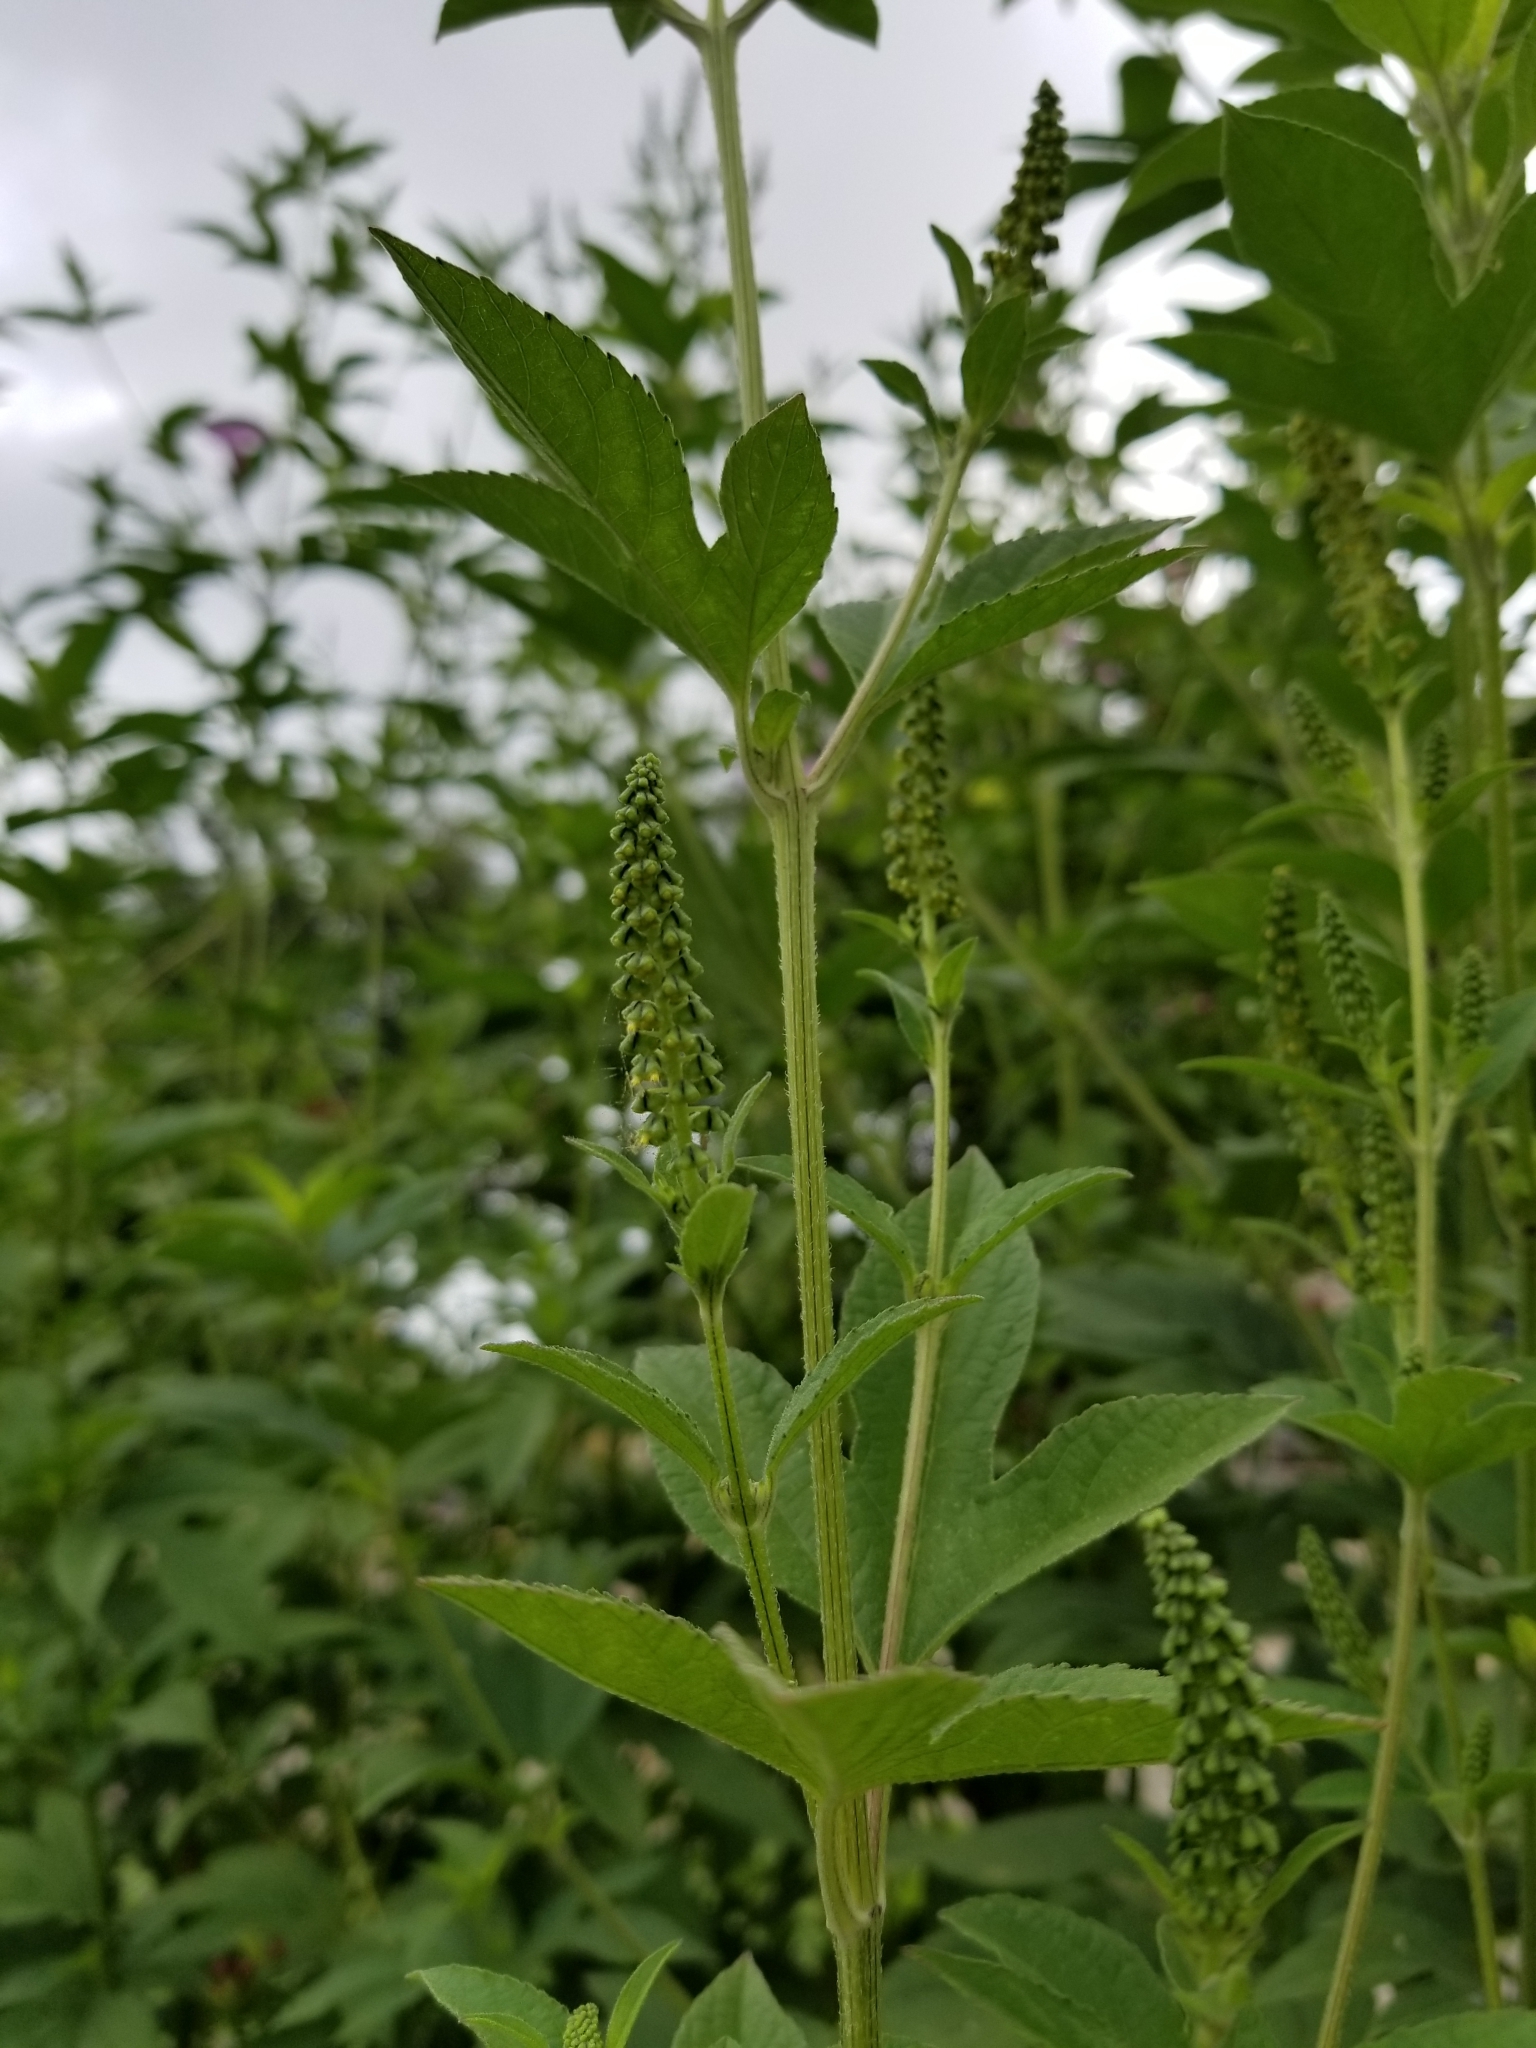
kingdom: Plantae
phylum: Tracheophyta
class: Magnoliopsida
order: Asterales
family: Asteraceae
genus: Ambrosia
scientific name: Ambrosia trifida
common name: Giant ragweed
